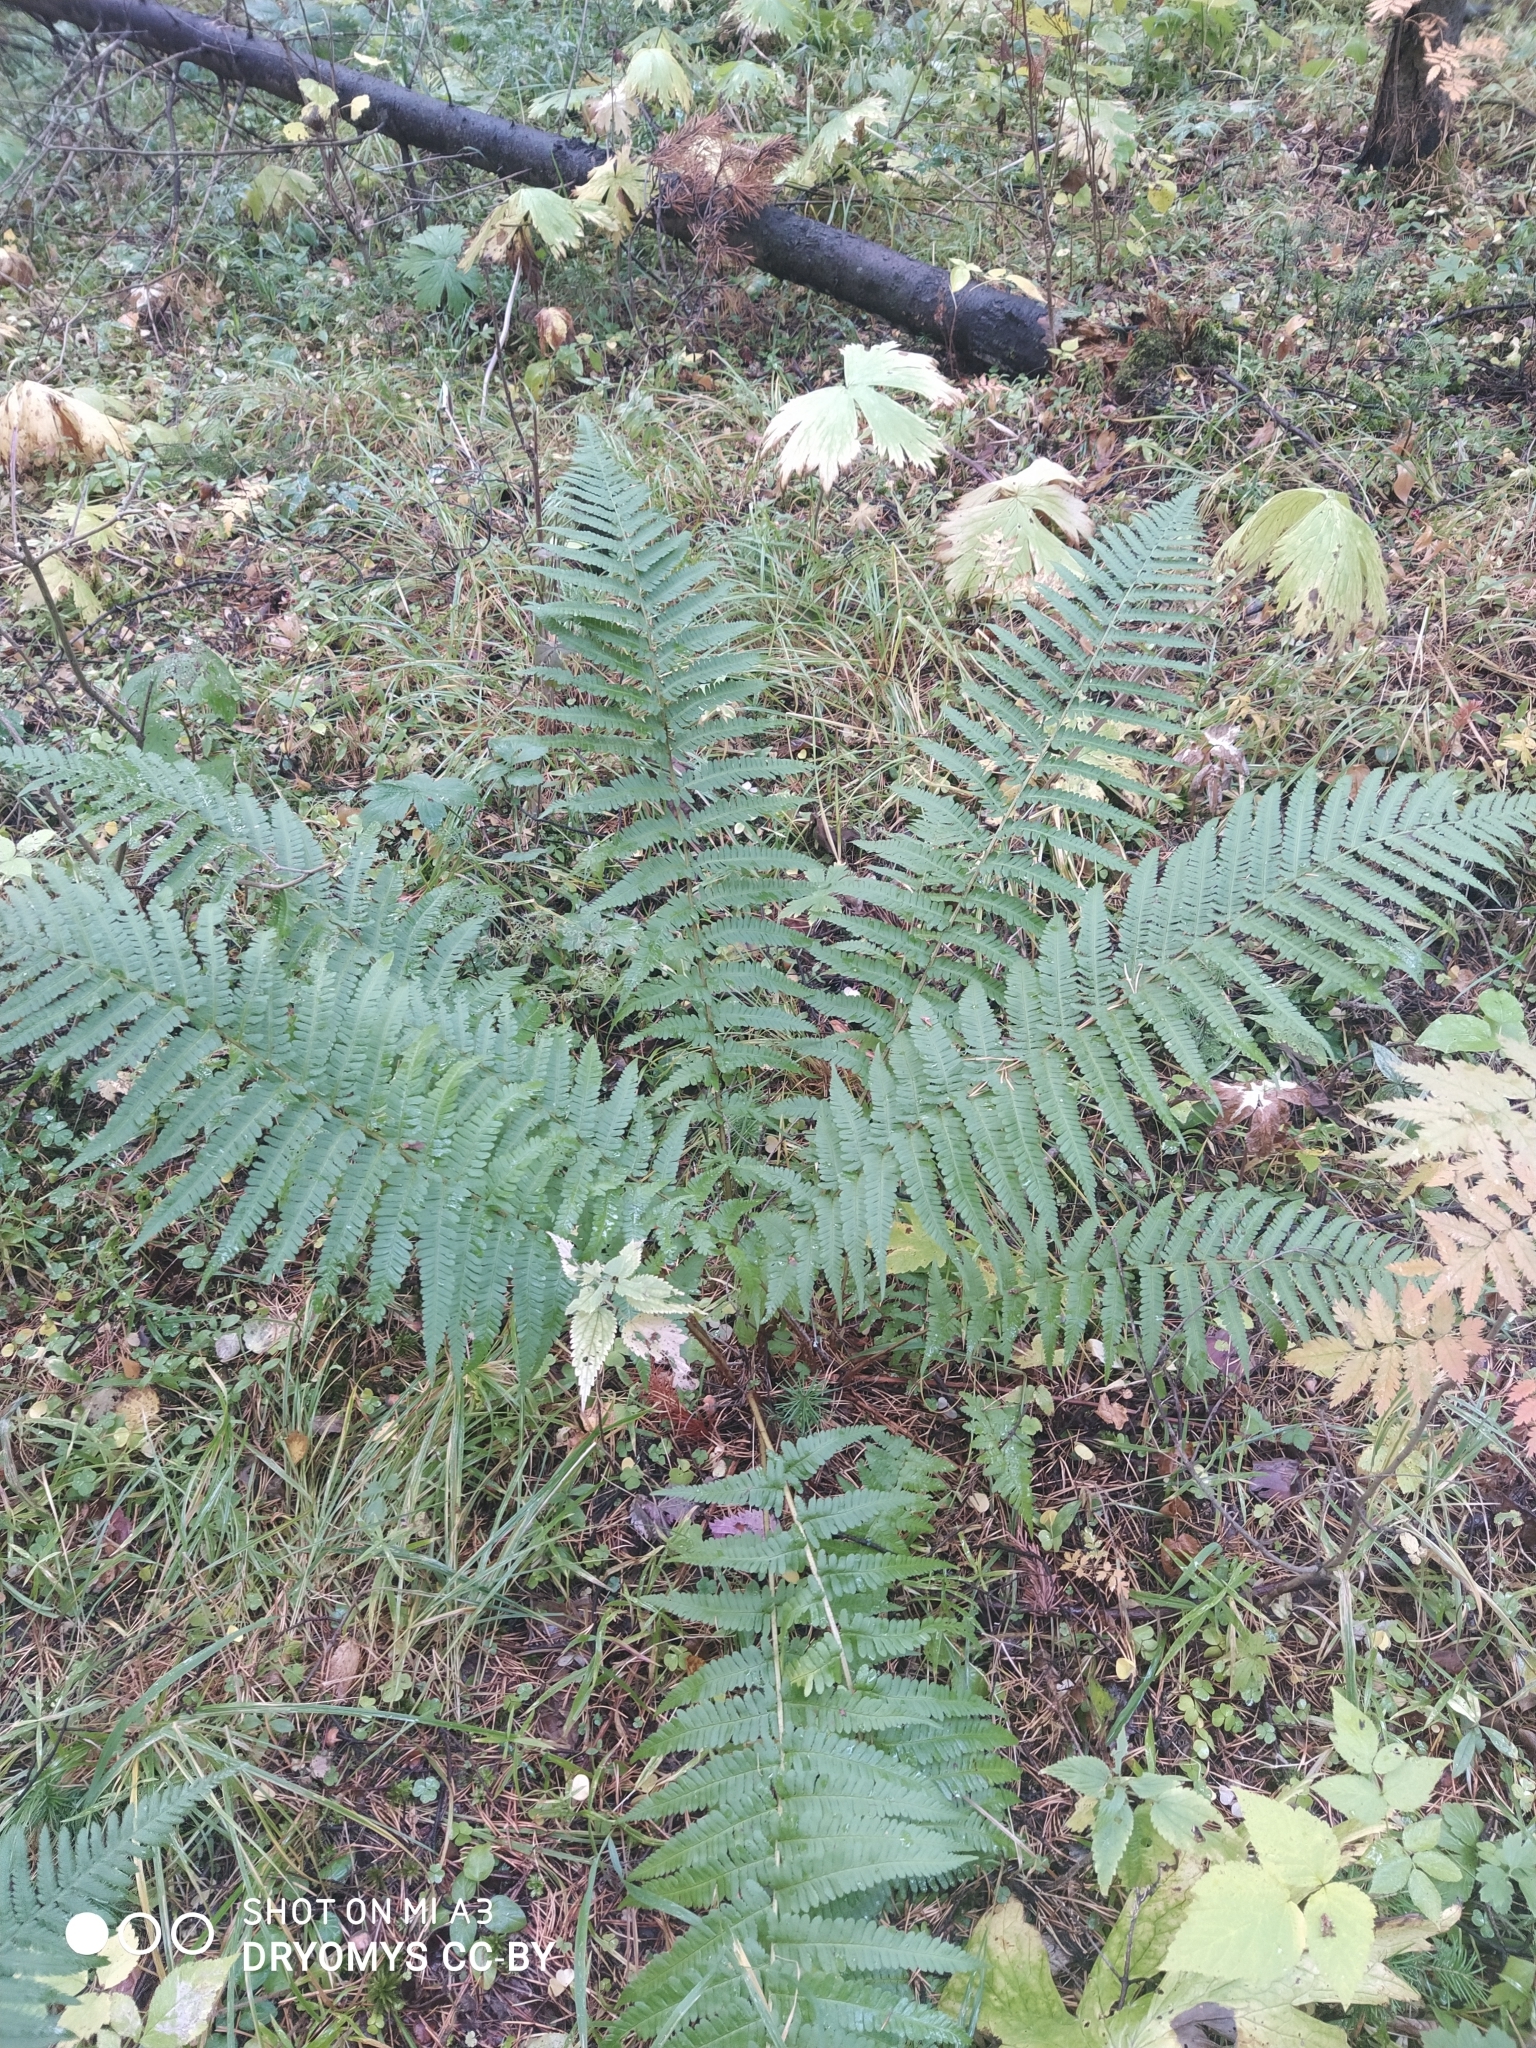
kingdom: Plantae
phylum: Tracheophyta
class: Polypodiopsida
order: Polypodiales
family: Dryopteridaceae
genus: Dryopteris
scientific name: Dryopteris filix-mas
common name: Male fern
